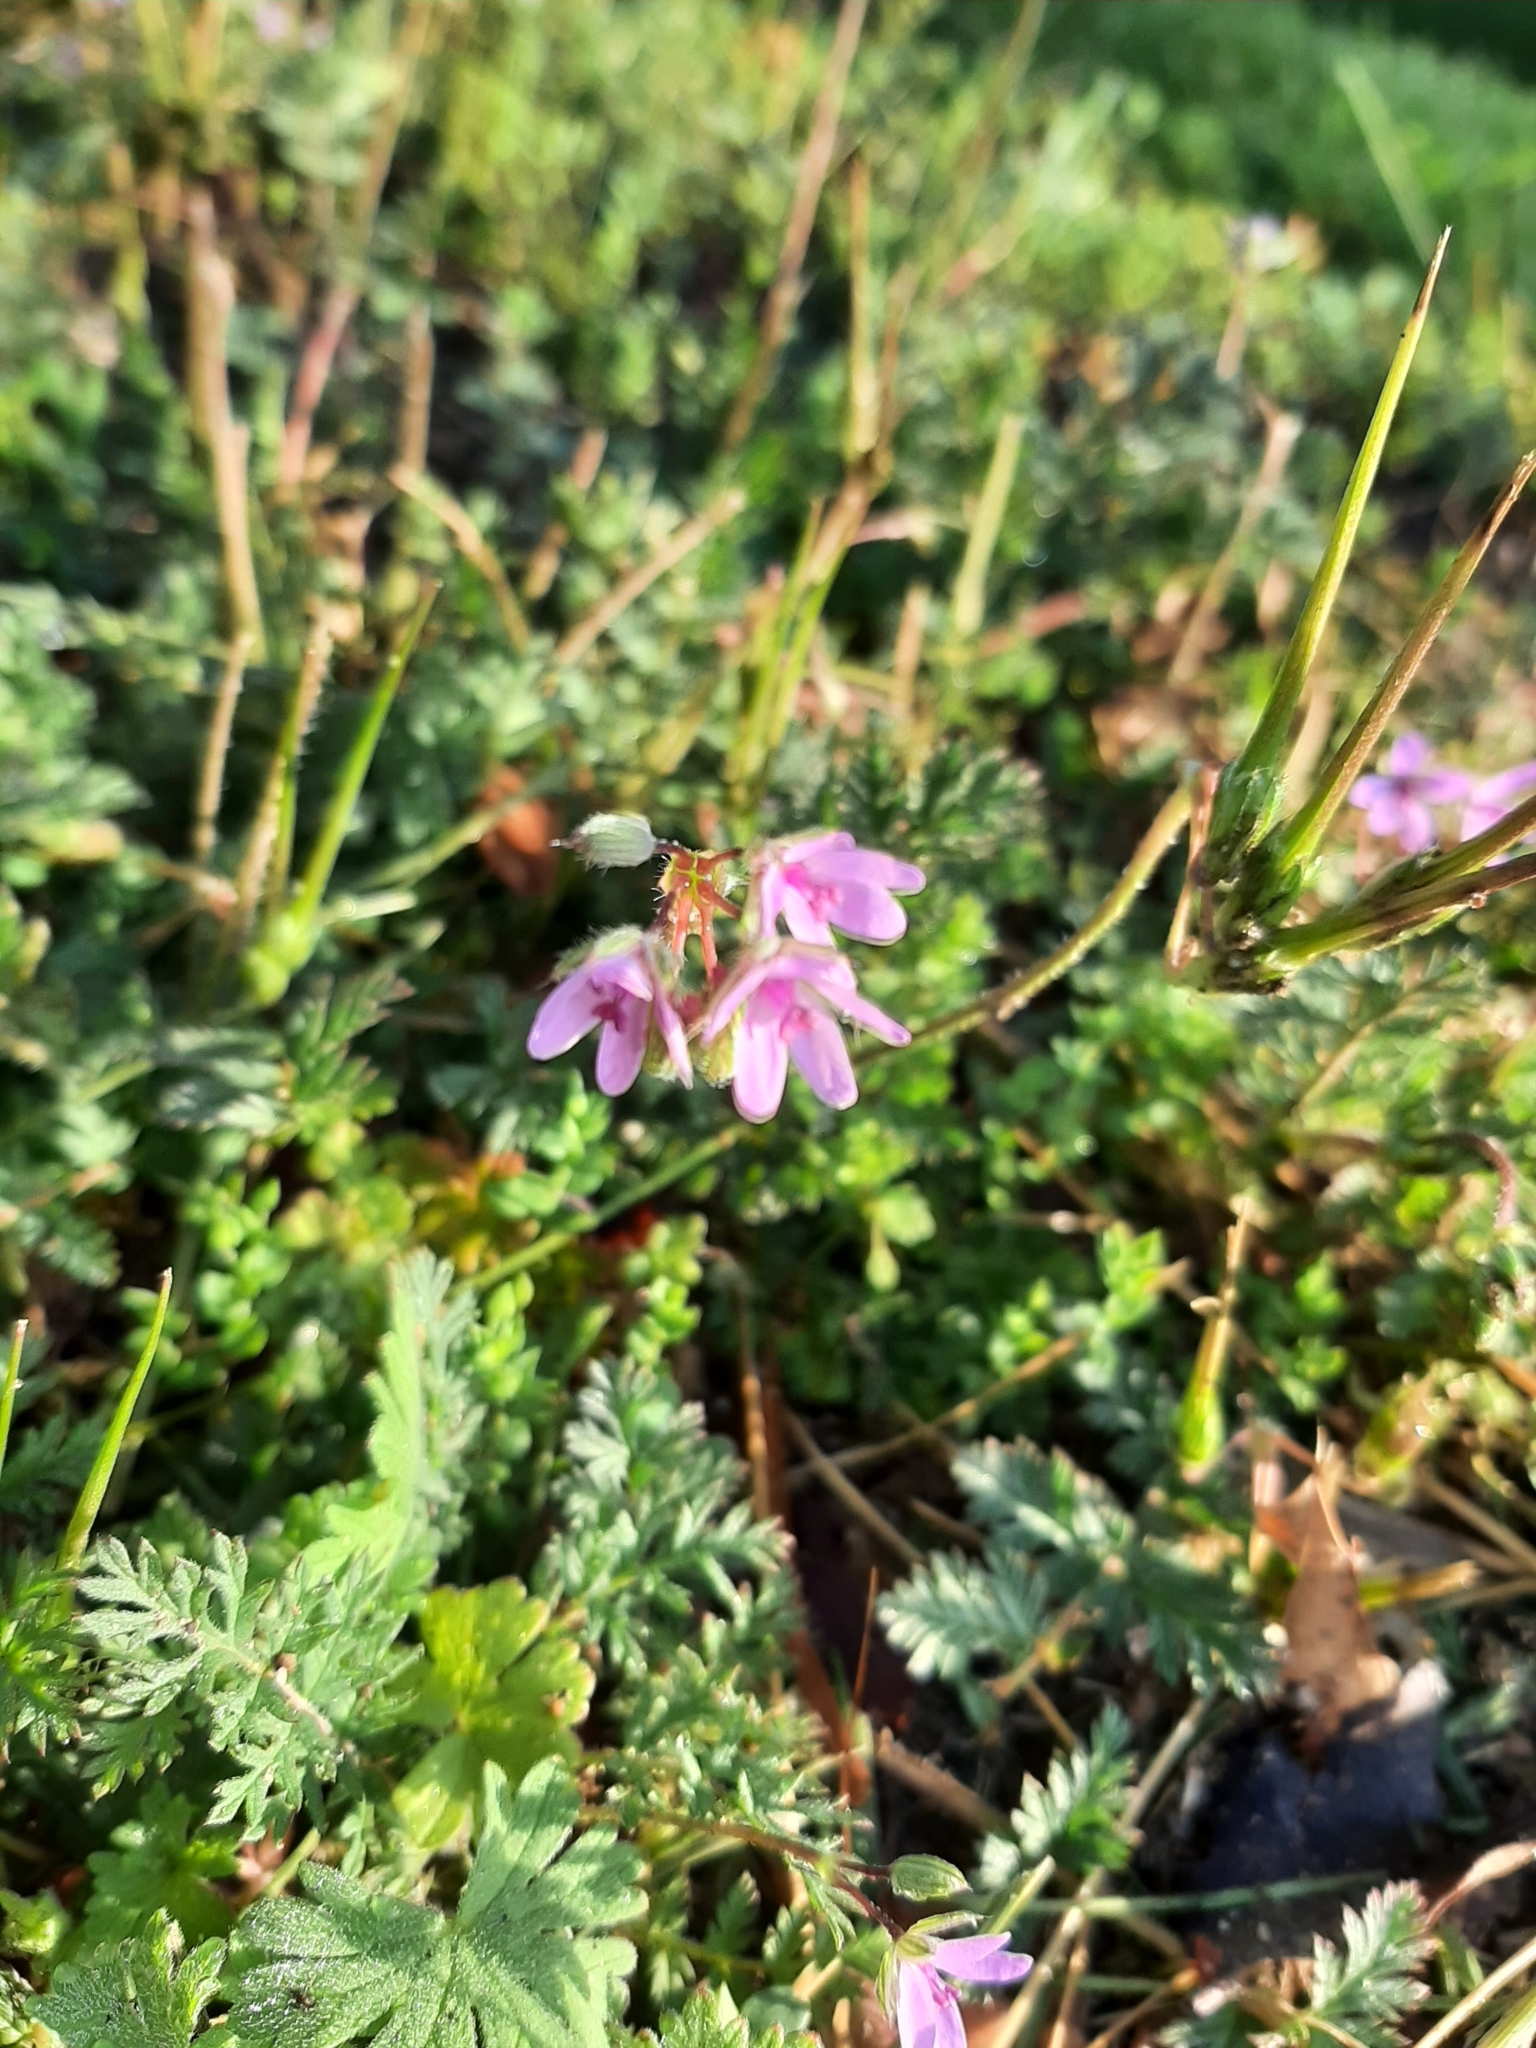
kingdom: Plantae
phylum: Tracheophyta
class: Magnoliopsida
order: Geraniales
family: Geraniaceae
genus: Erodium
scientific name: Erodium cicutarium
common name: Common stork's-bill
